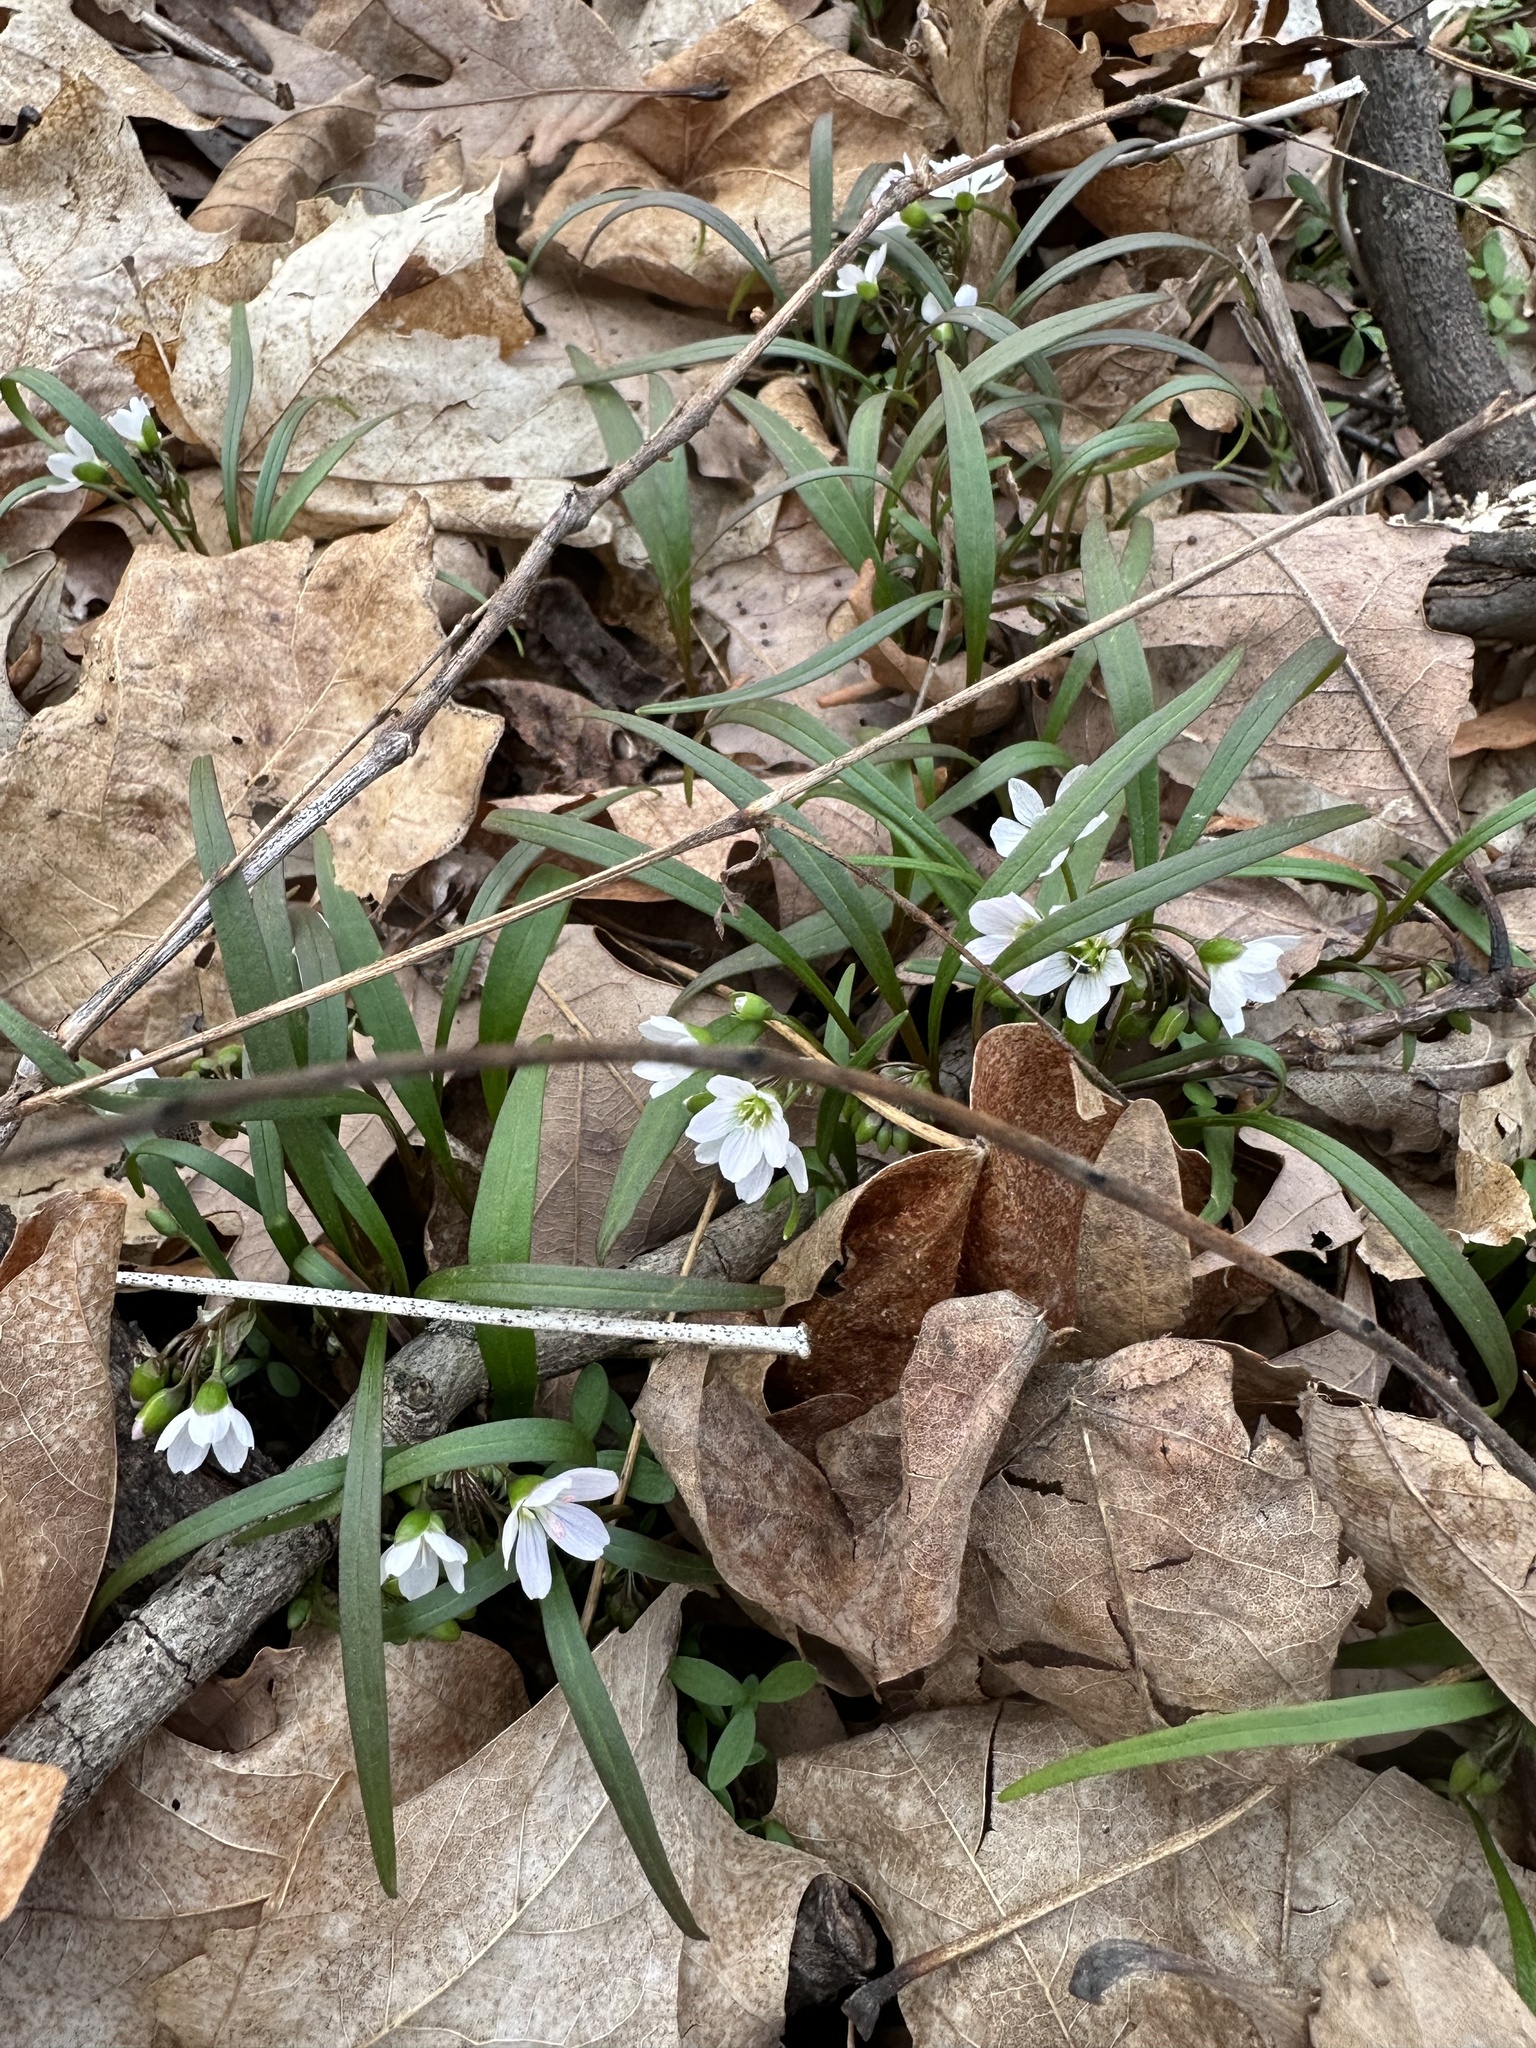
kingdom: Plantae
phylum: Tracheophyta
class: Magnoliopsida
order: Caryophyllales
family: Montiaceae
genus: Claytonia
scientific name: Claytonia virginica
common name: Virginia springbeauty
